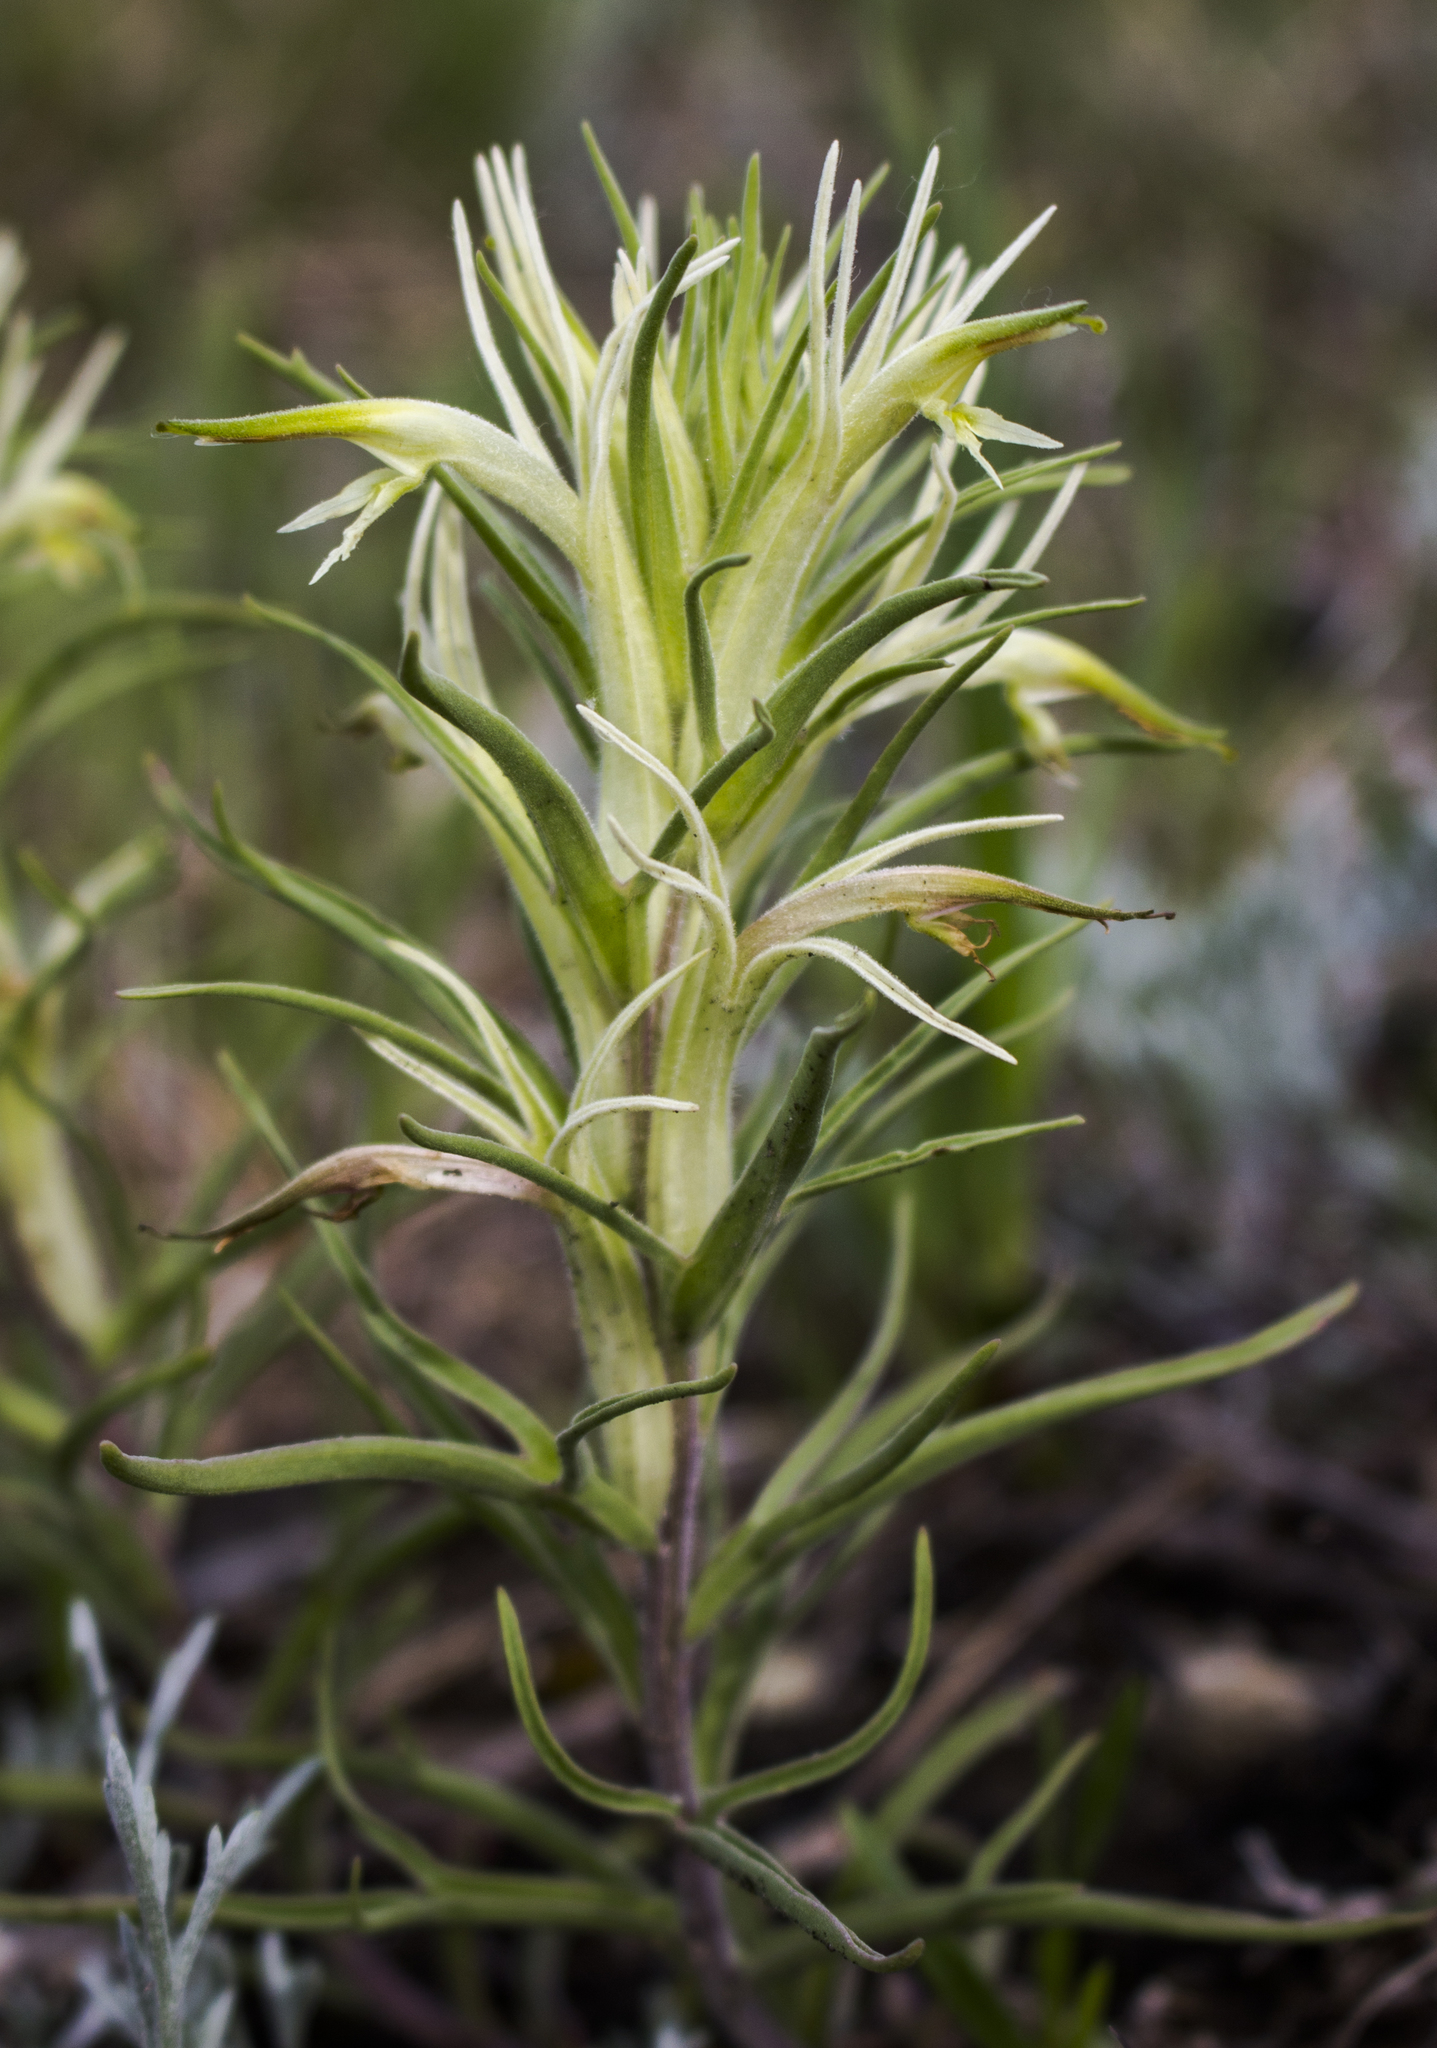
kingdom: Plantae
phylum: Tracheophyta
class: Magnoliopsida
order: Lamiales
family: Orobanchaceae
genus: Castilleja
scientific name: Castilleja sessiliflora
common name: Downy paintbrush
